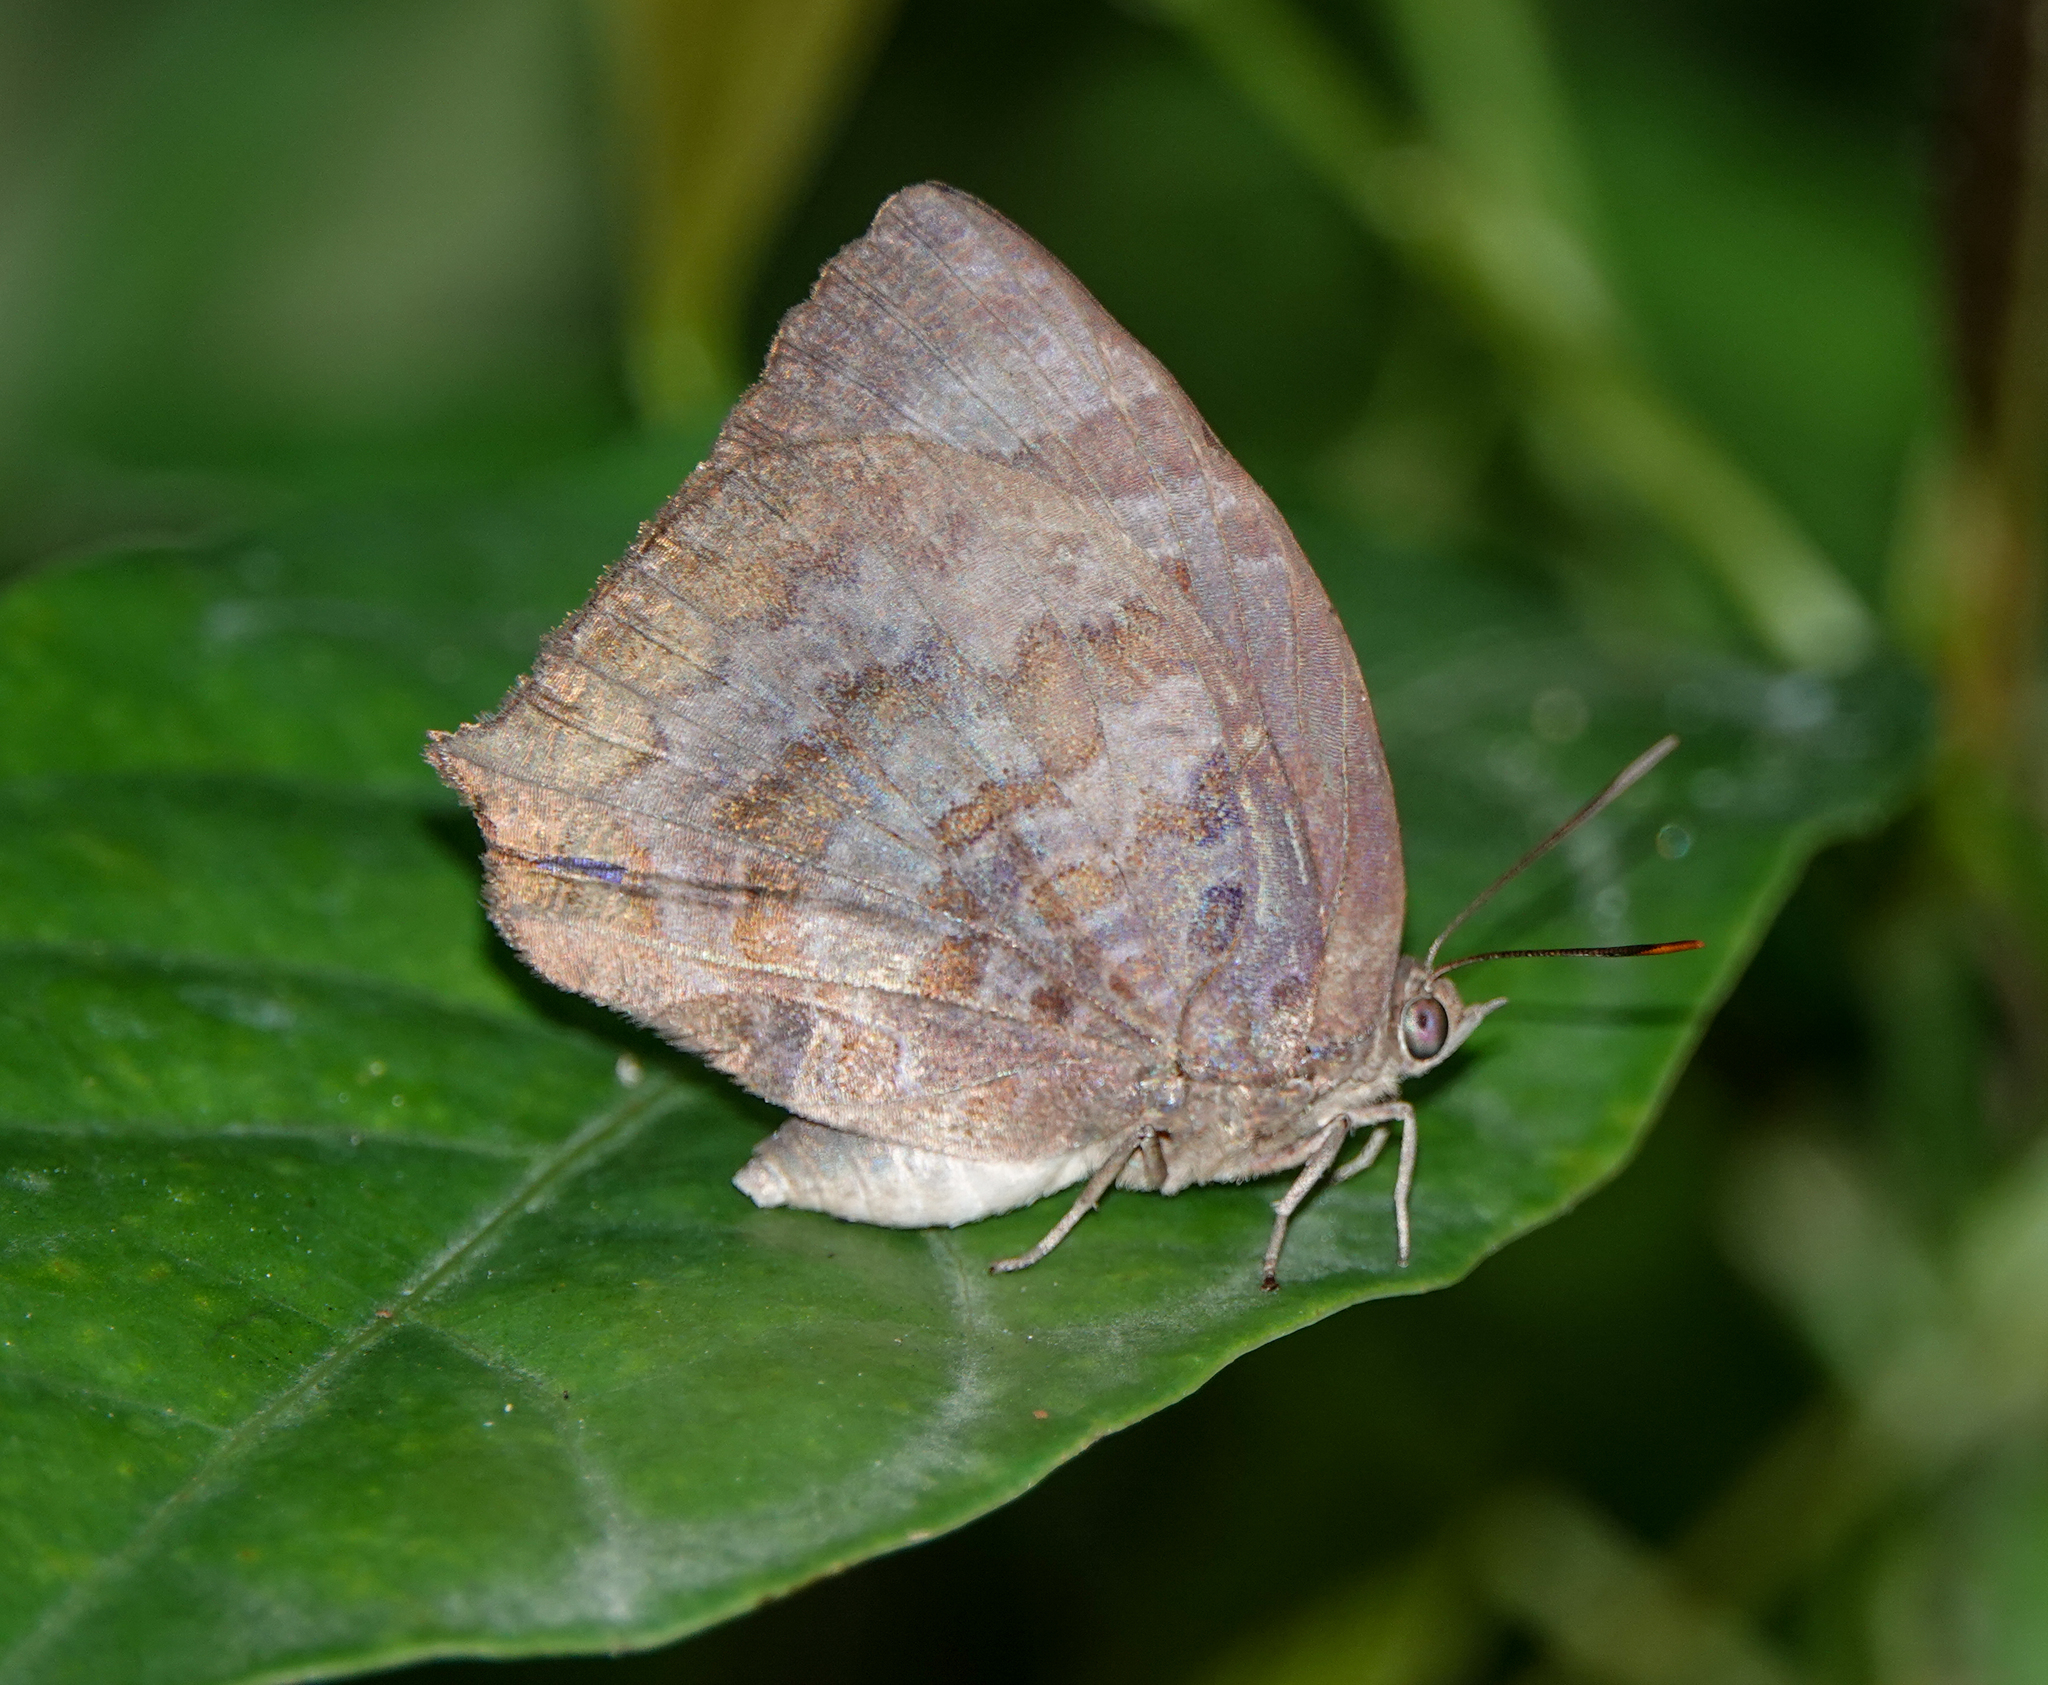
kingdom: Animalia
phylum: Arthropoda
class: Insecta
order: Lepidoptera
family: Lycaenidae
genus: Arhopala
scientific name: Arhopala centaurus
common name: Dull oak-blue
